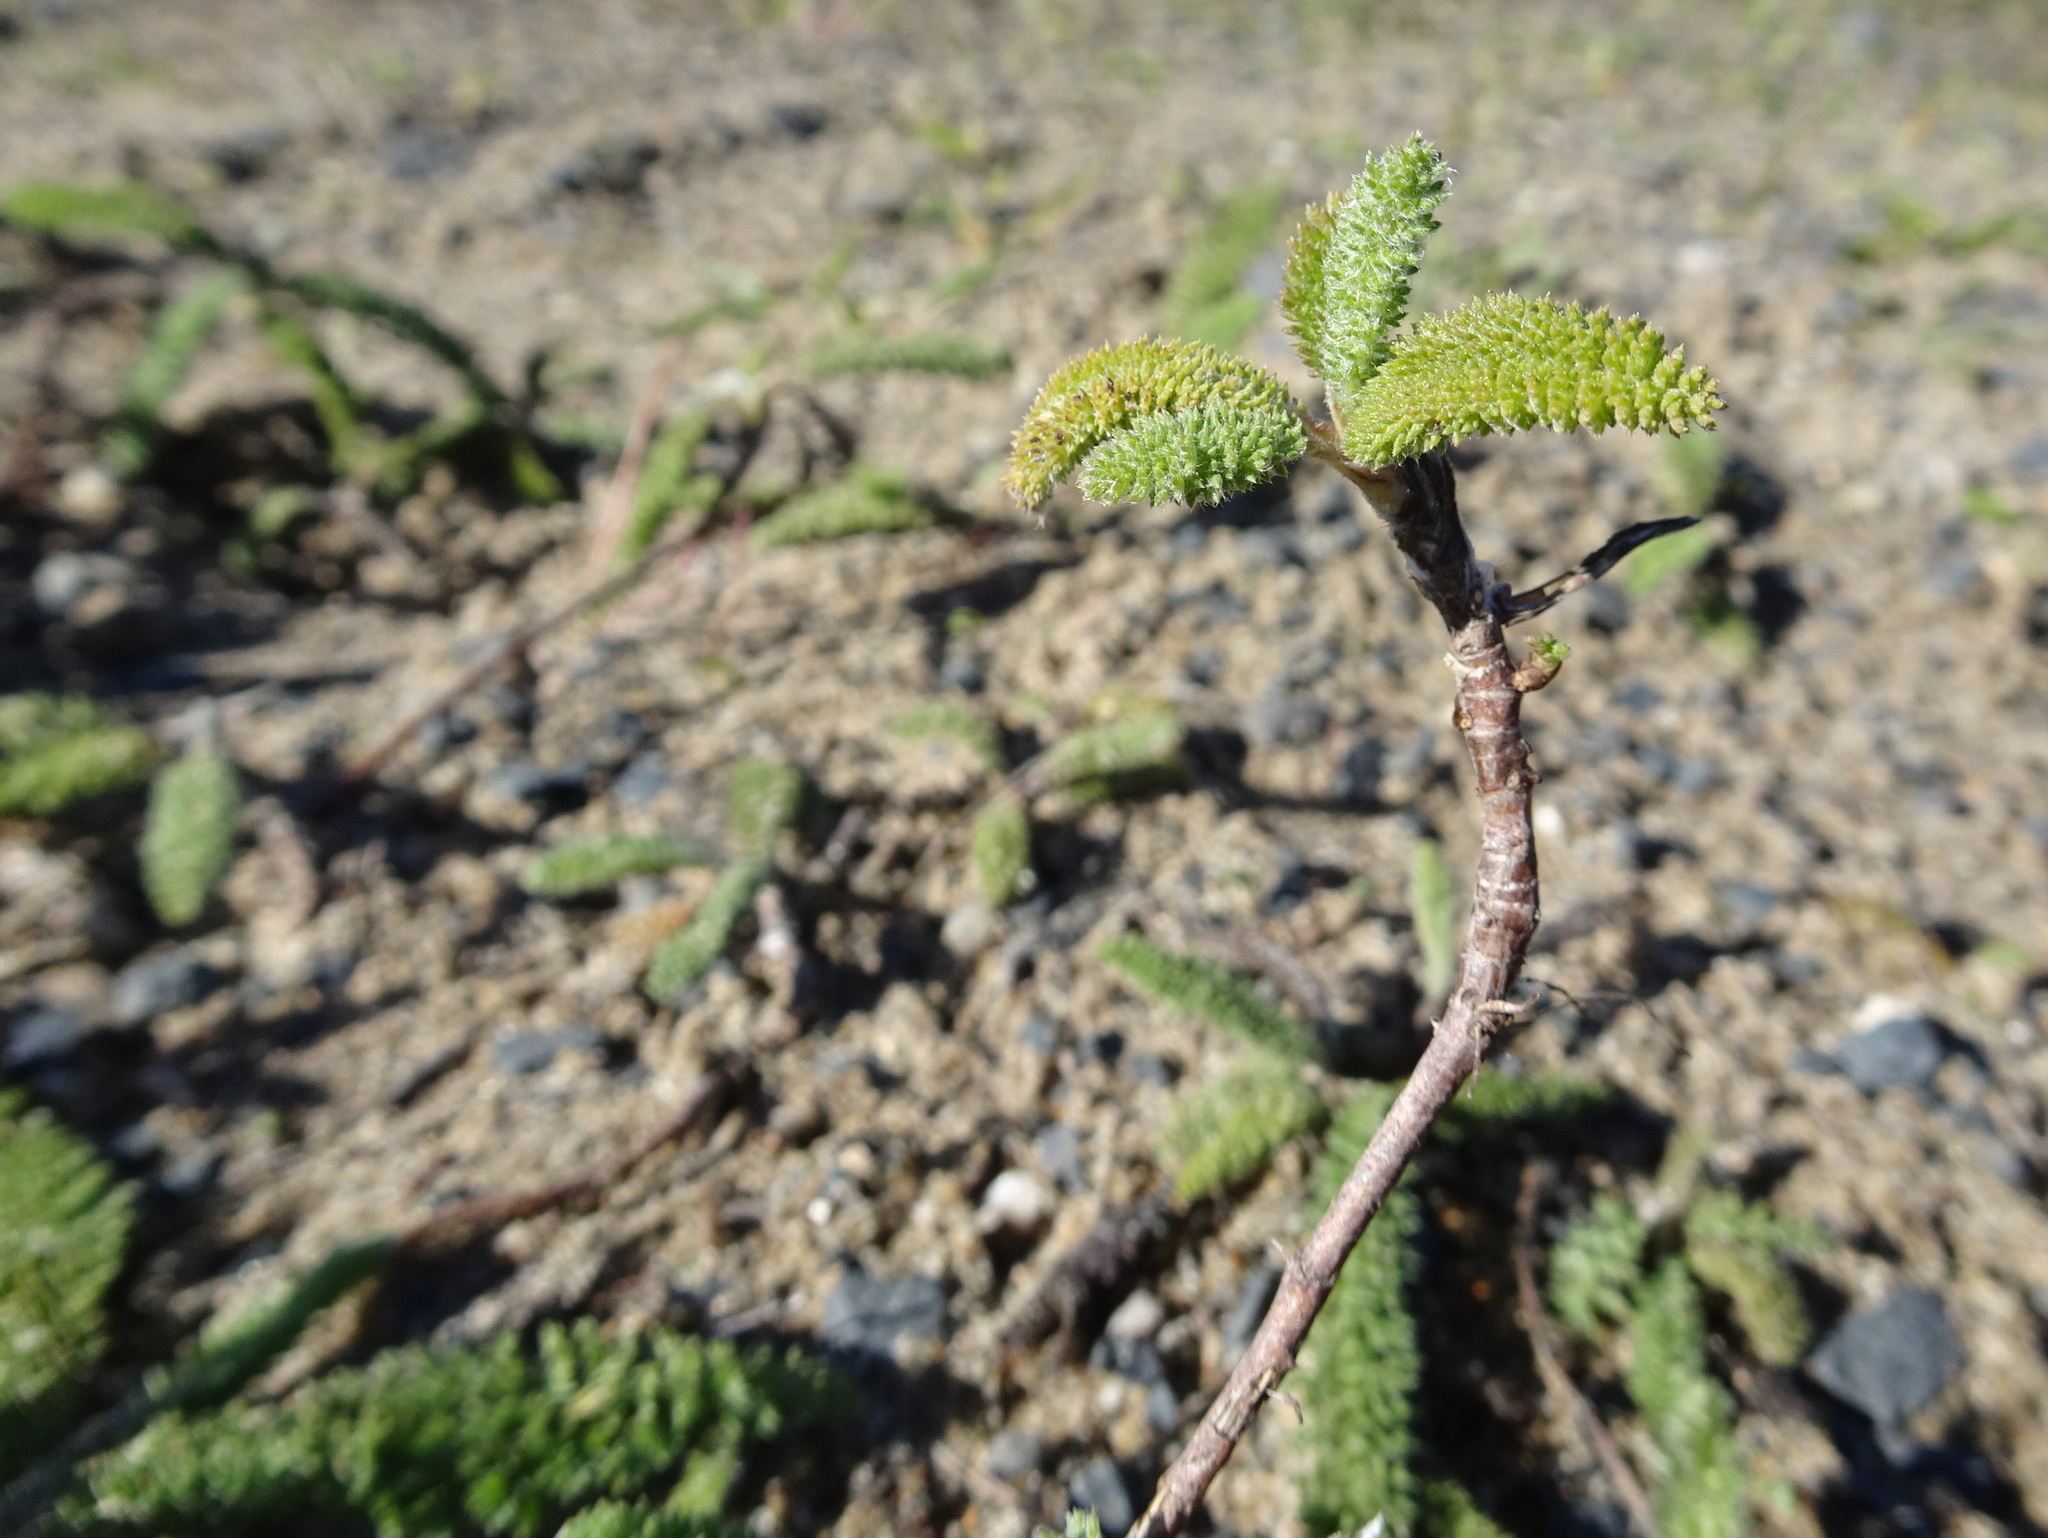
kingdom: Plantae
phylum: Tracheophyta
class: Magnoliopsida
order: Asterales
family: Asteraceae
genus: Achillea
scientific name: Achillea millefolium
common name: Yarrow
